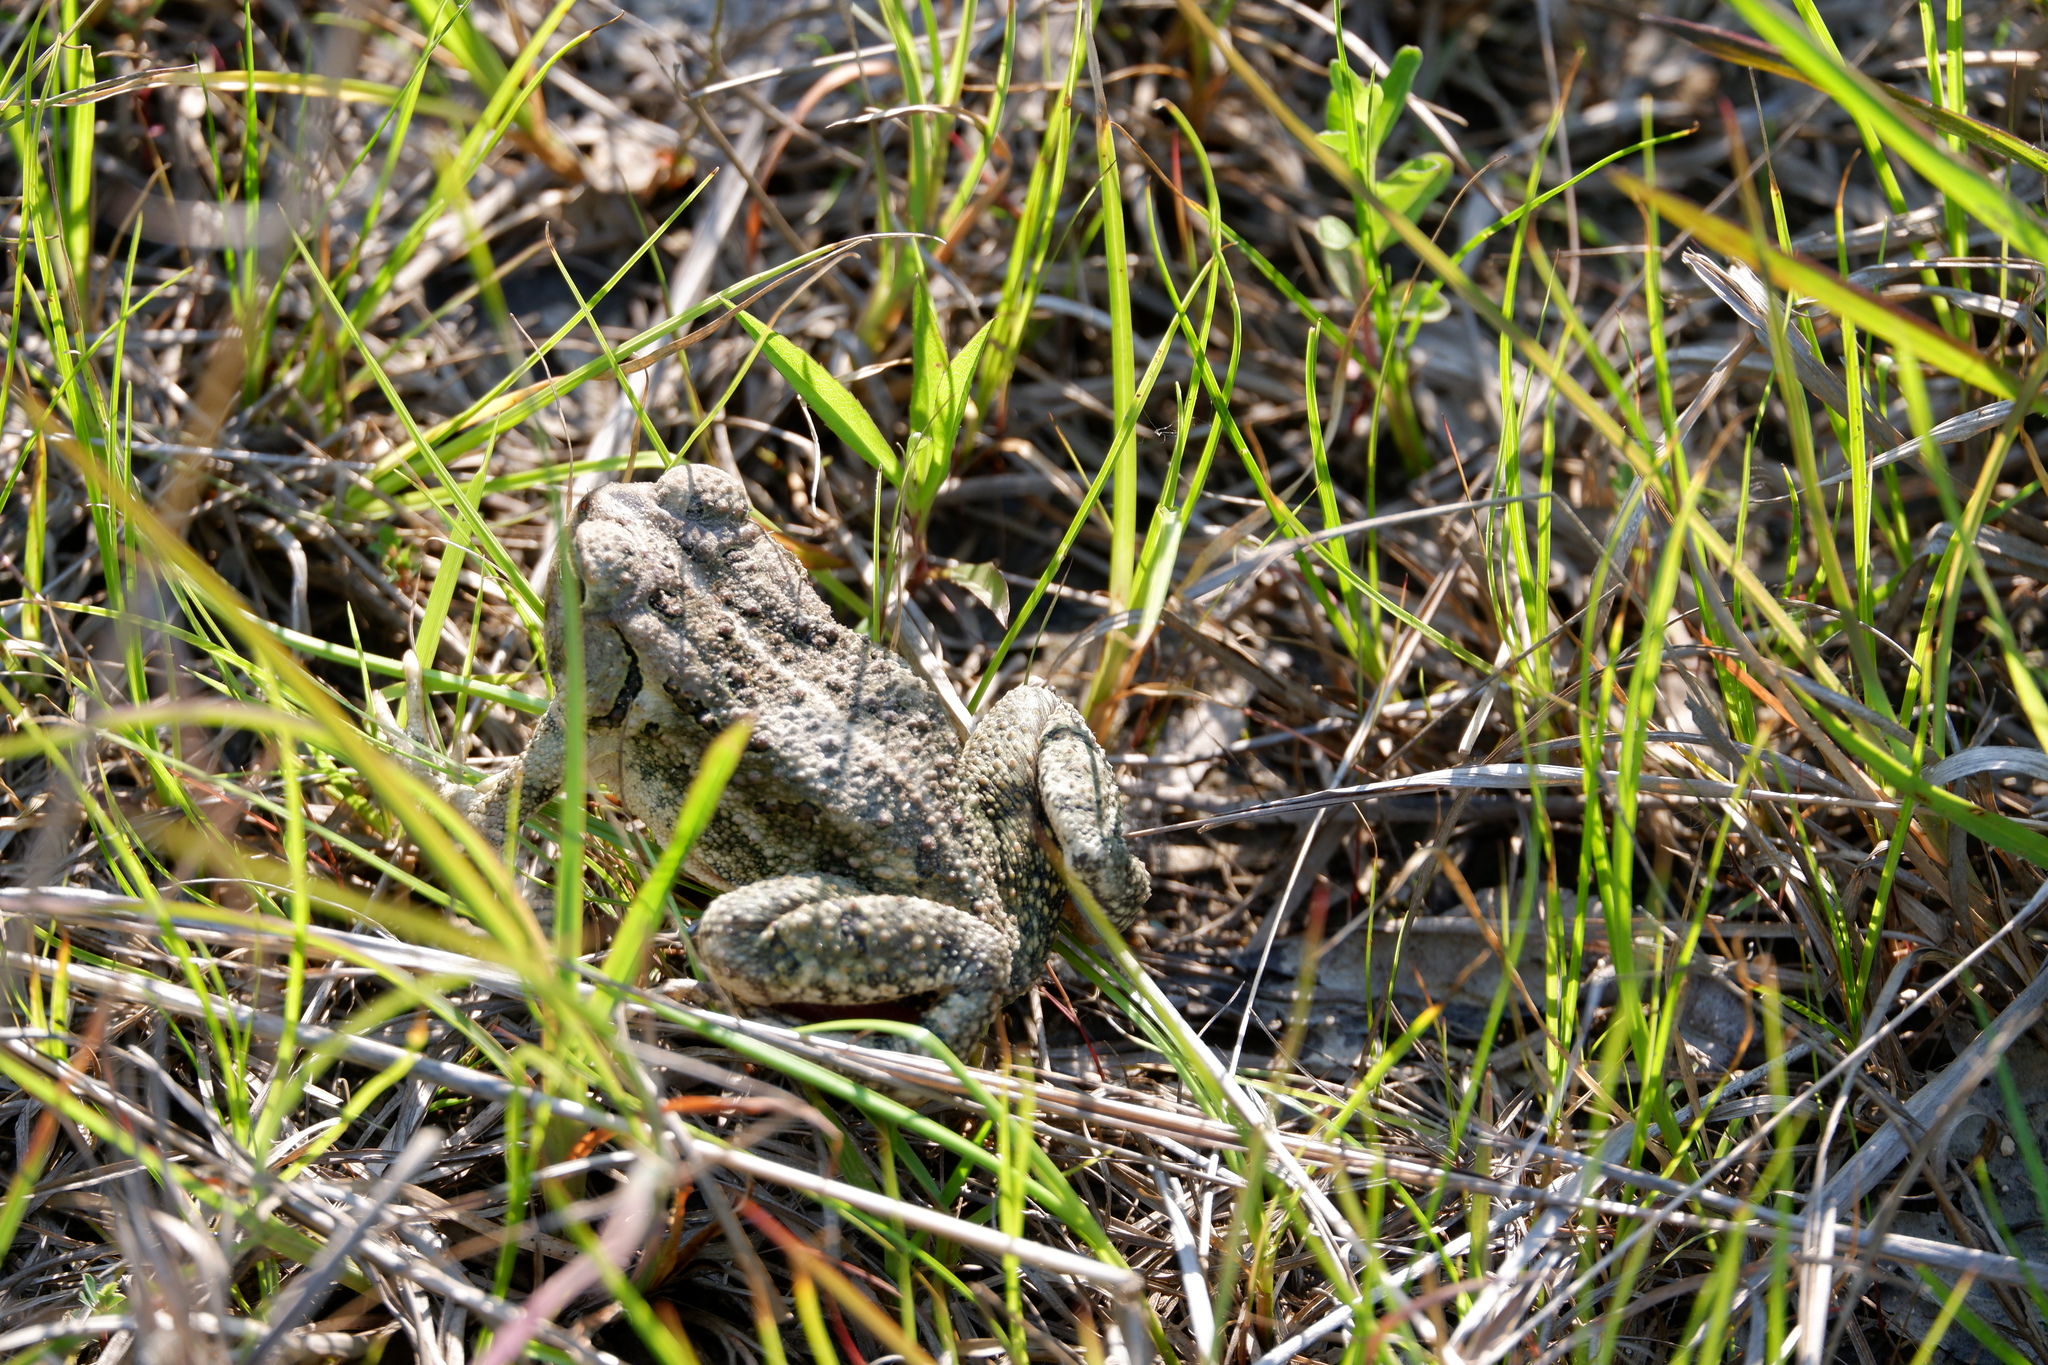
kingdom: Animalia
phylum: Chordata
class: Amphibia
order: Anura
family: Bufonidae
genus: Anaxyrus
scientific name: Anaxyrus fowleri
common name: Fowler's toad
